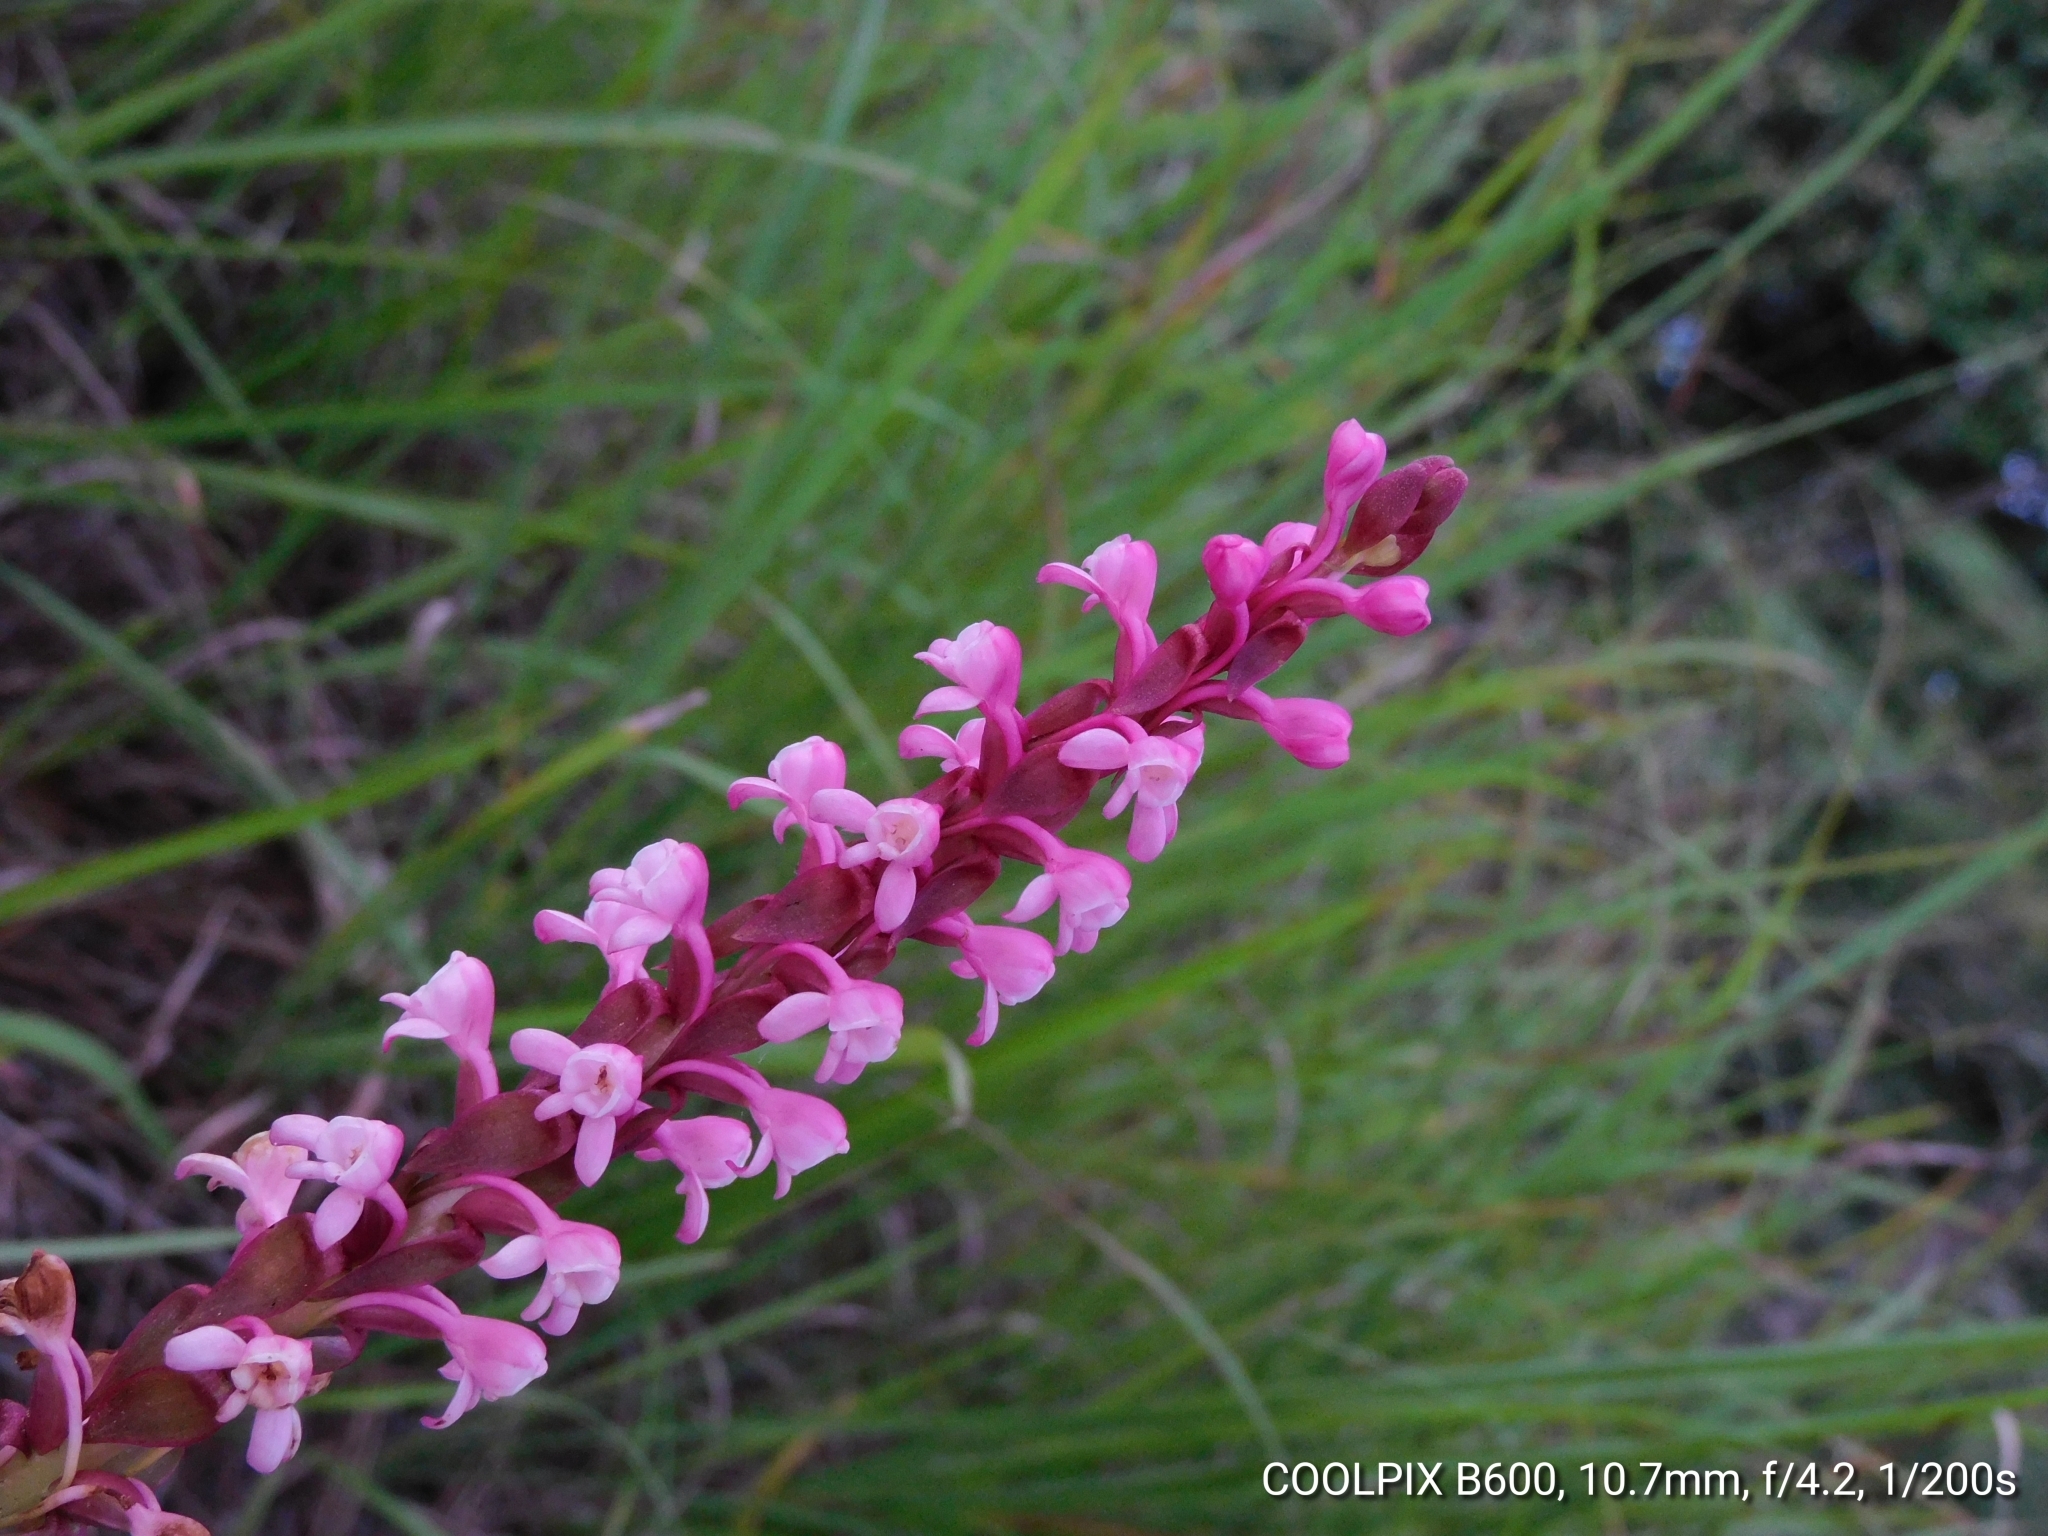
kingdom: Plantae
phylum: Tracheophyta
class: Liliopsida
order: Asparagales
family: Orchidaceae
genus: Satyrium
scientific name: Satyrium nepalense
